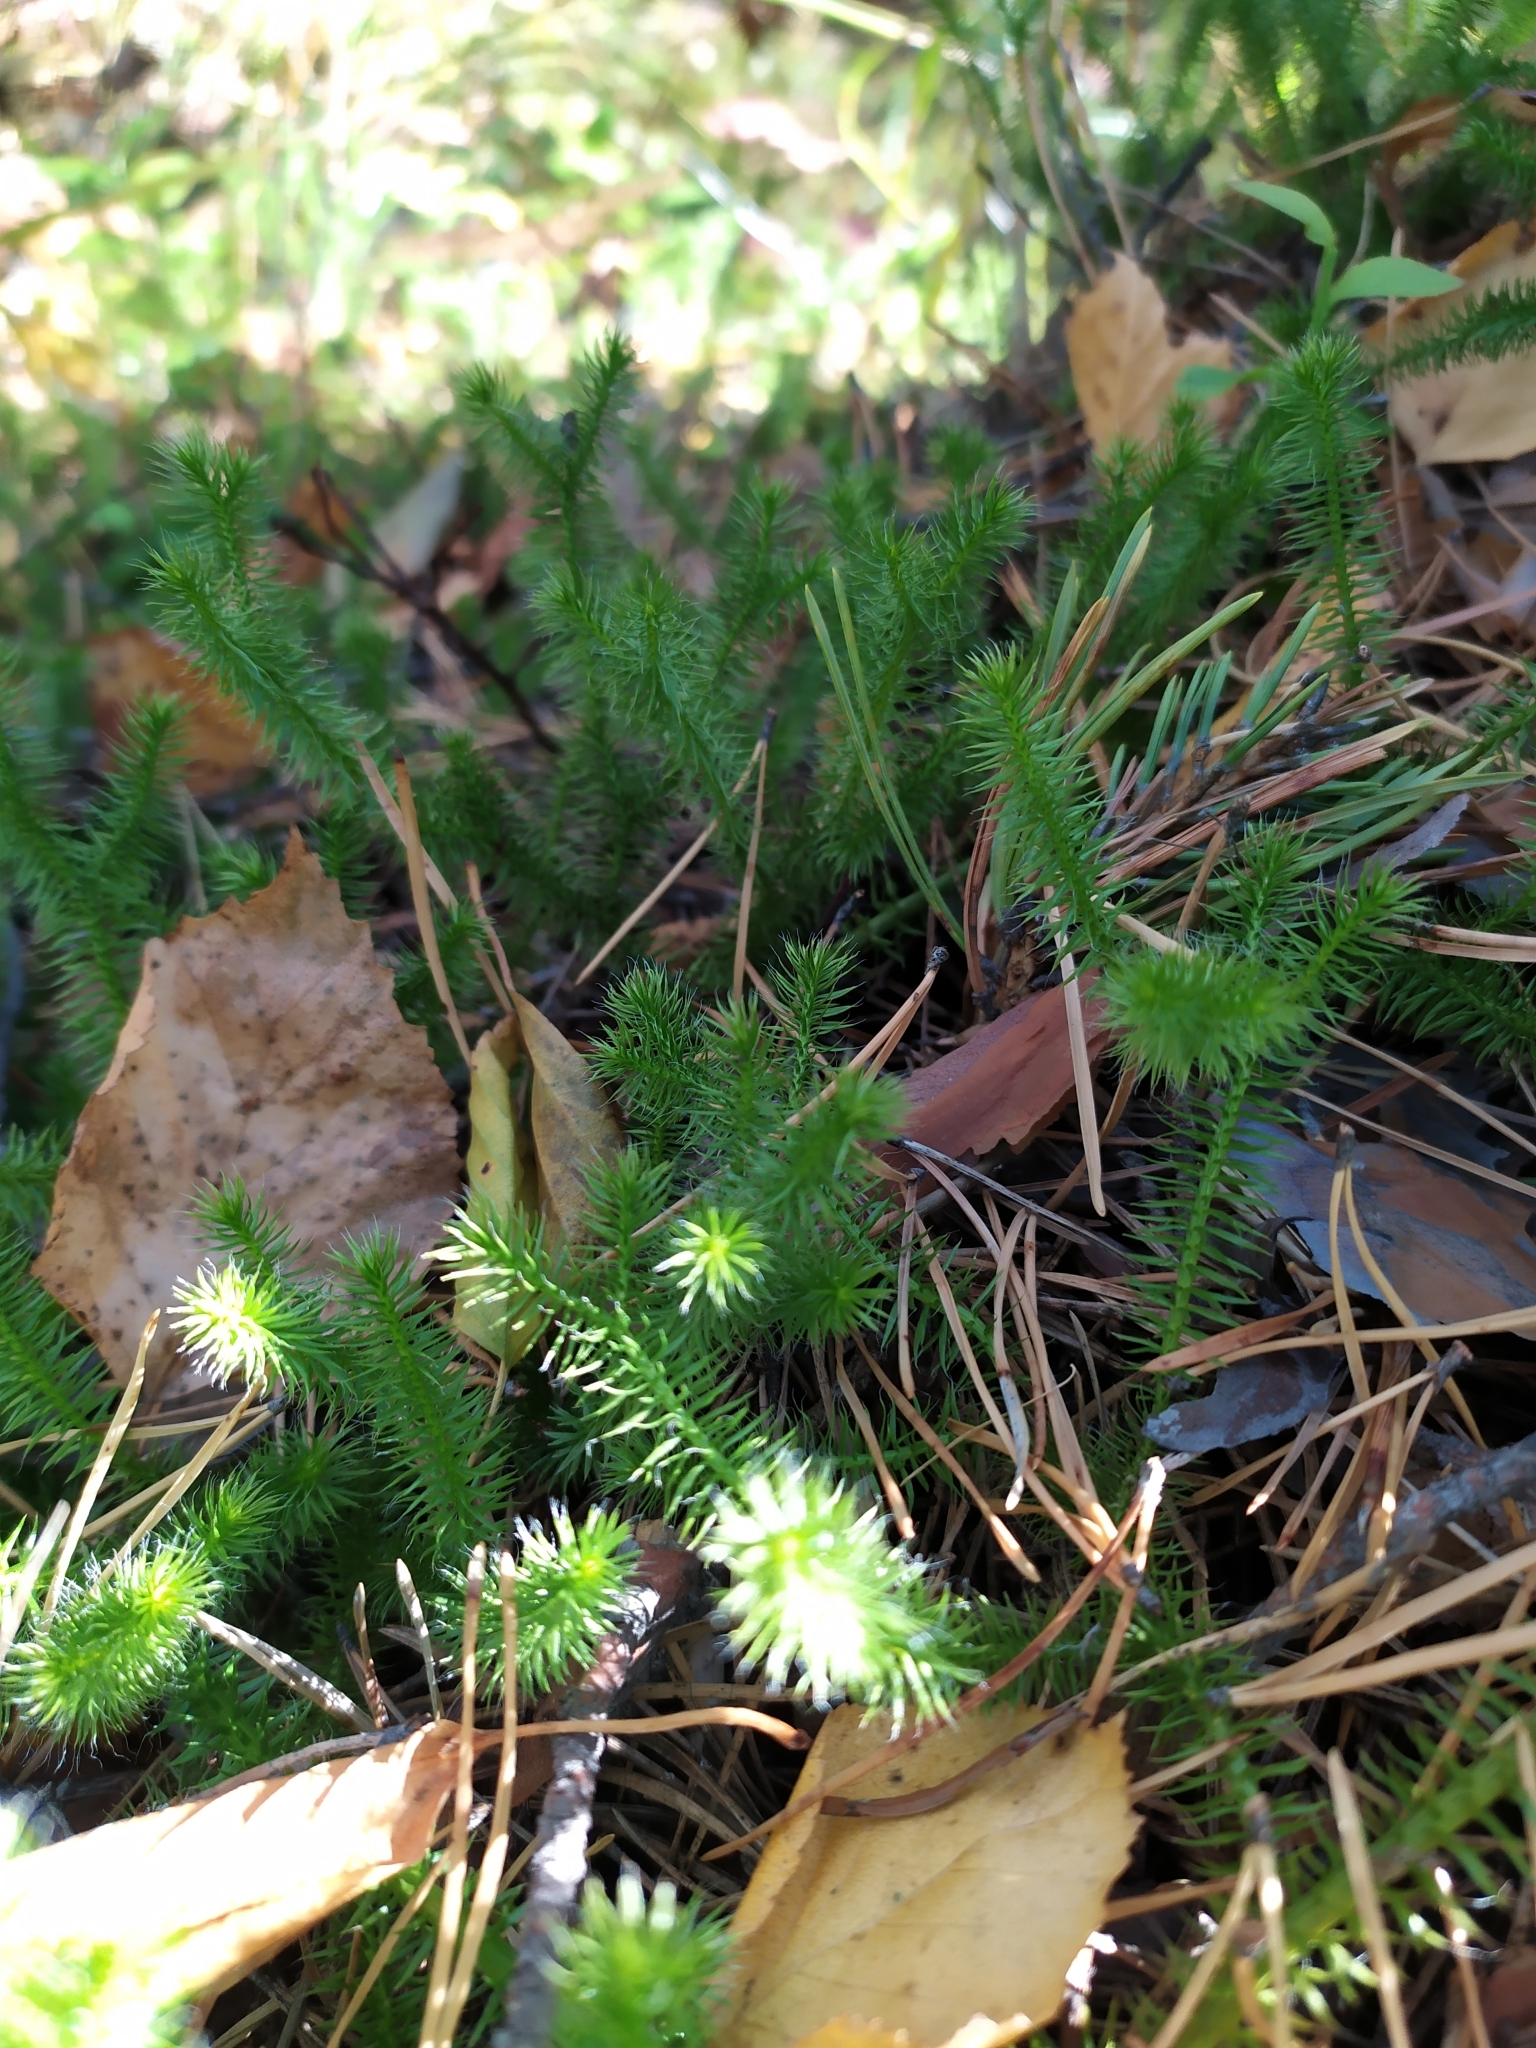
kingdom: Plantae
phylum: Tracheophyta
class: Lycopodiopsida
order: Lycopodiales
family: Lycopodiaceae
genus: Lycopodium
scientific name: Lycopodium clavatum
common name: Stag's-horn clubmoss
